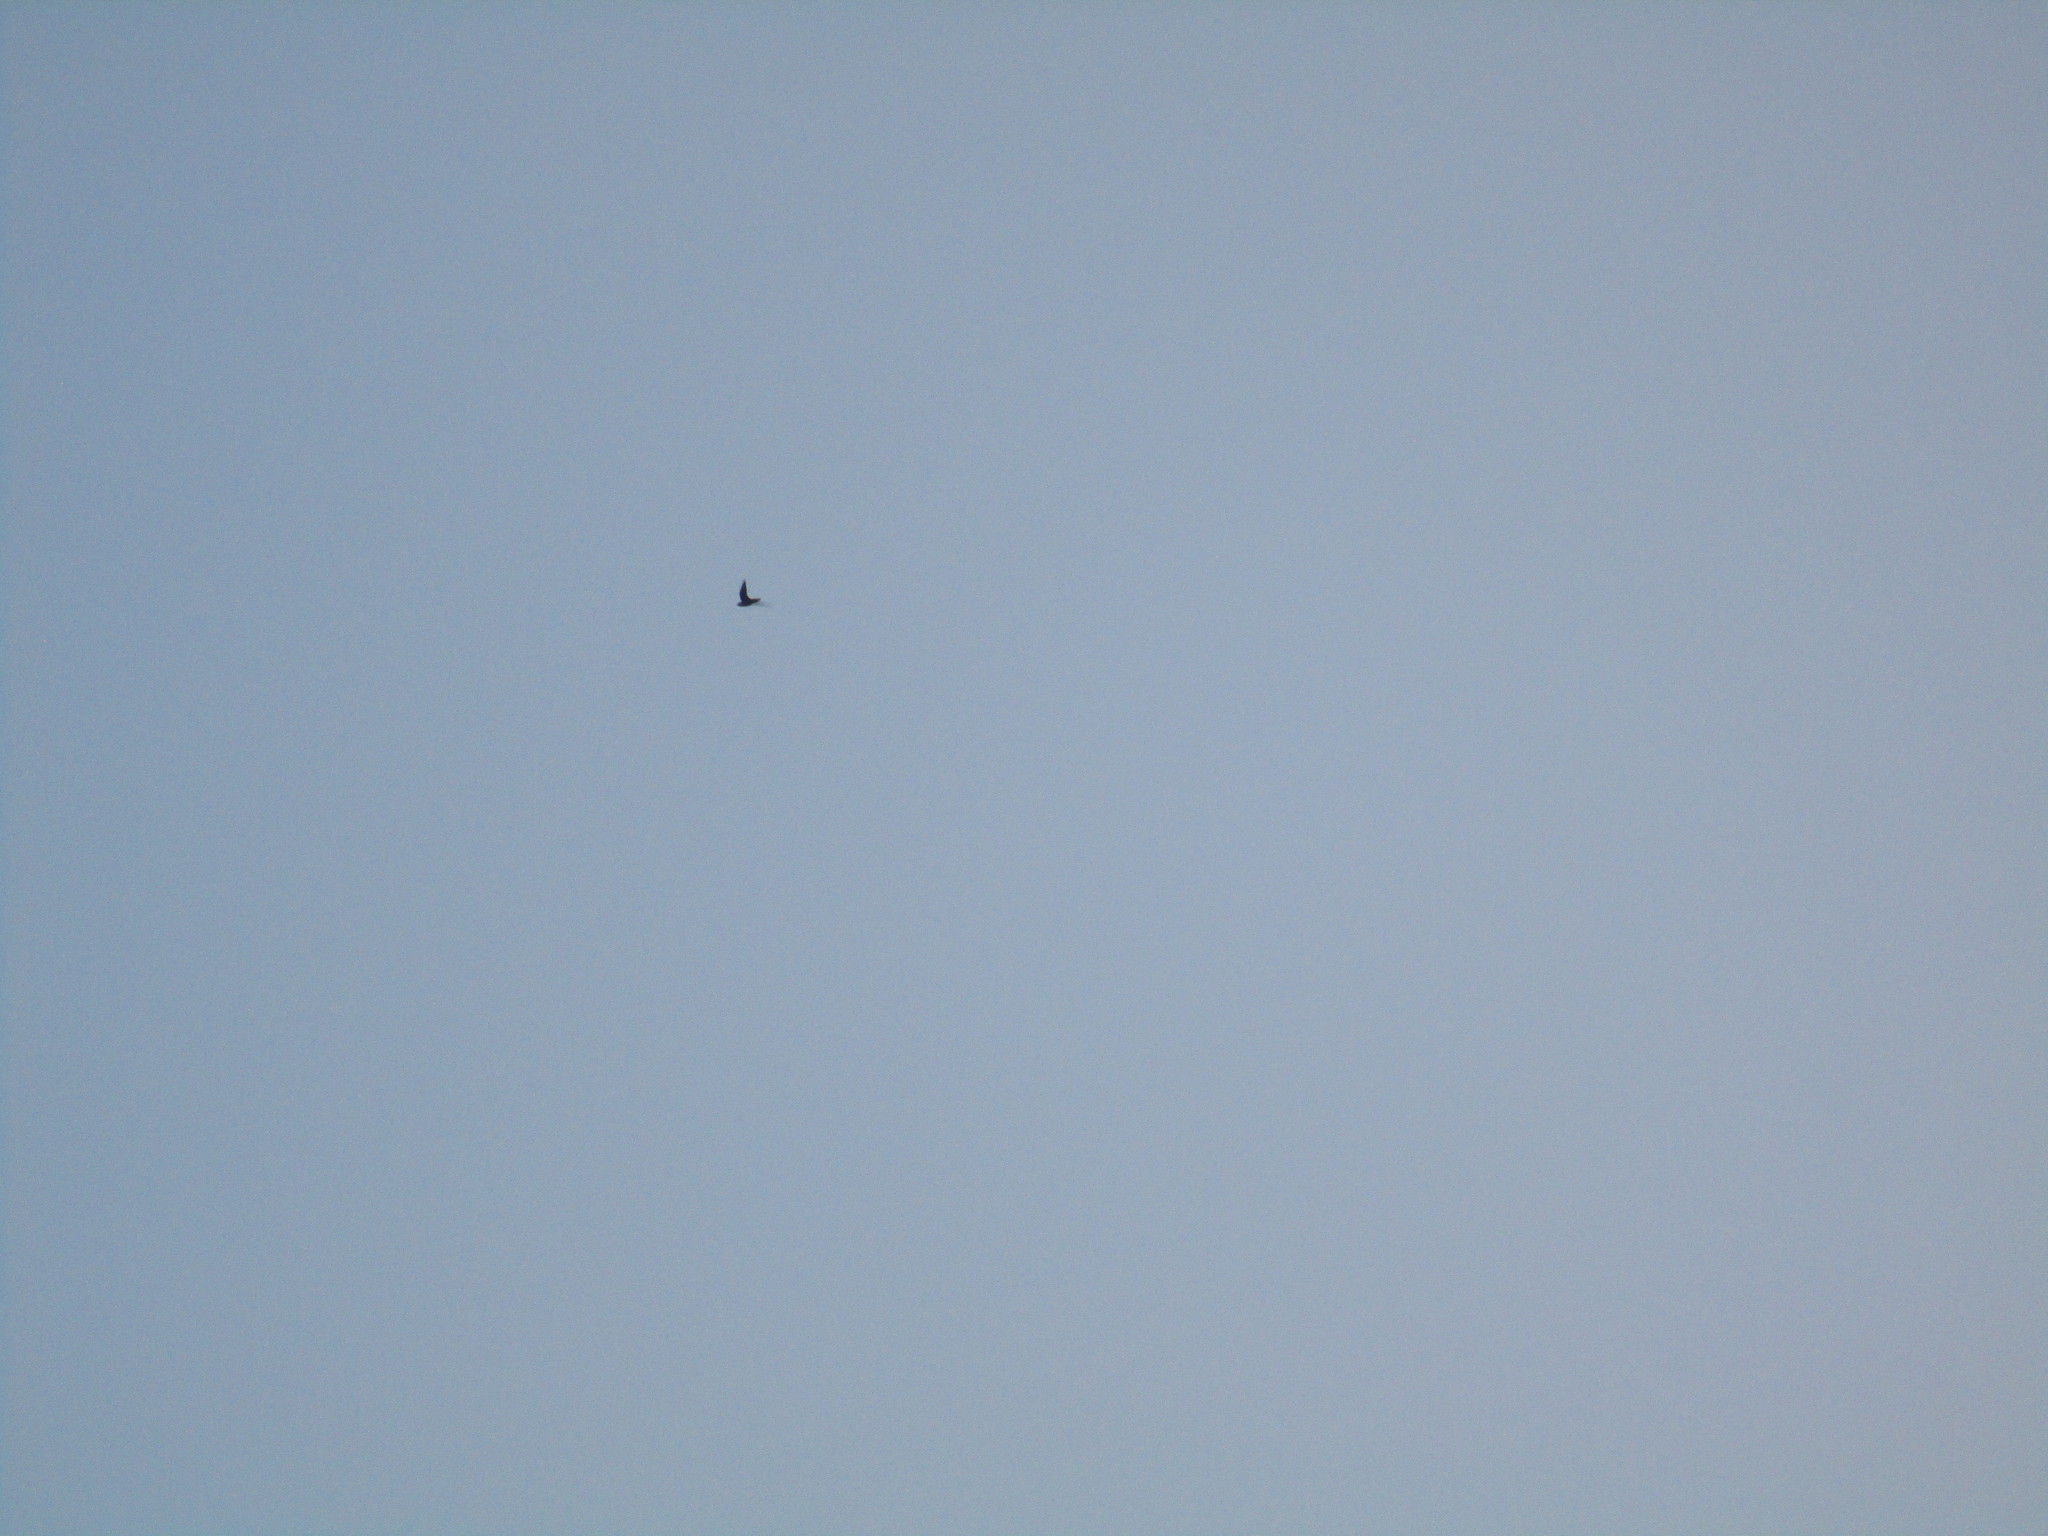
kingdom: Animalia
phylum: Chordata
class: Aves
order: Apodiformes
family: Apodidae
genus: Chaetura
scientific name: Chaetura pelagica
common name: Chimney swift
